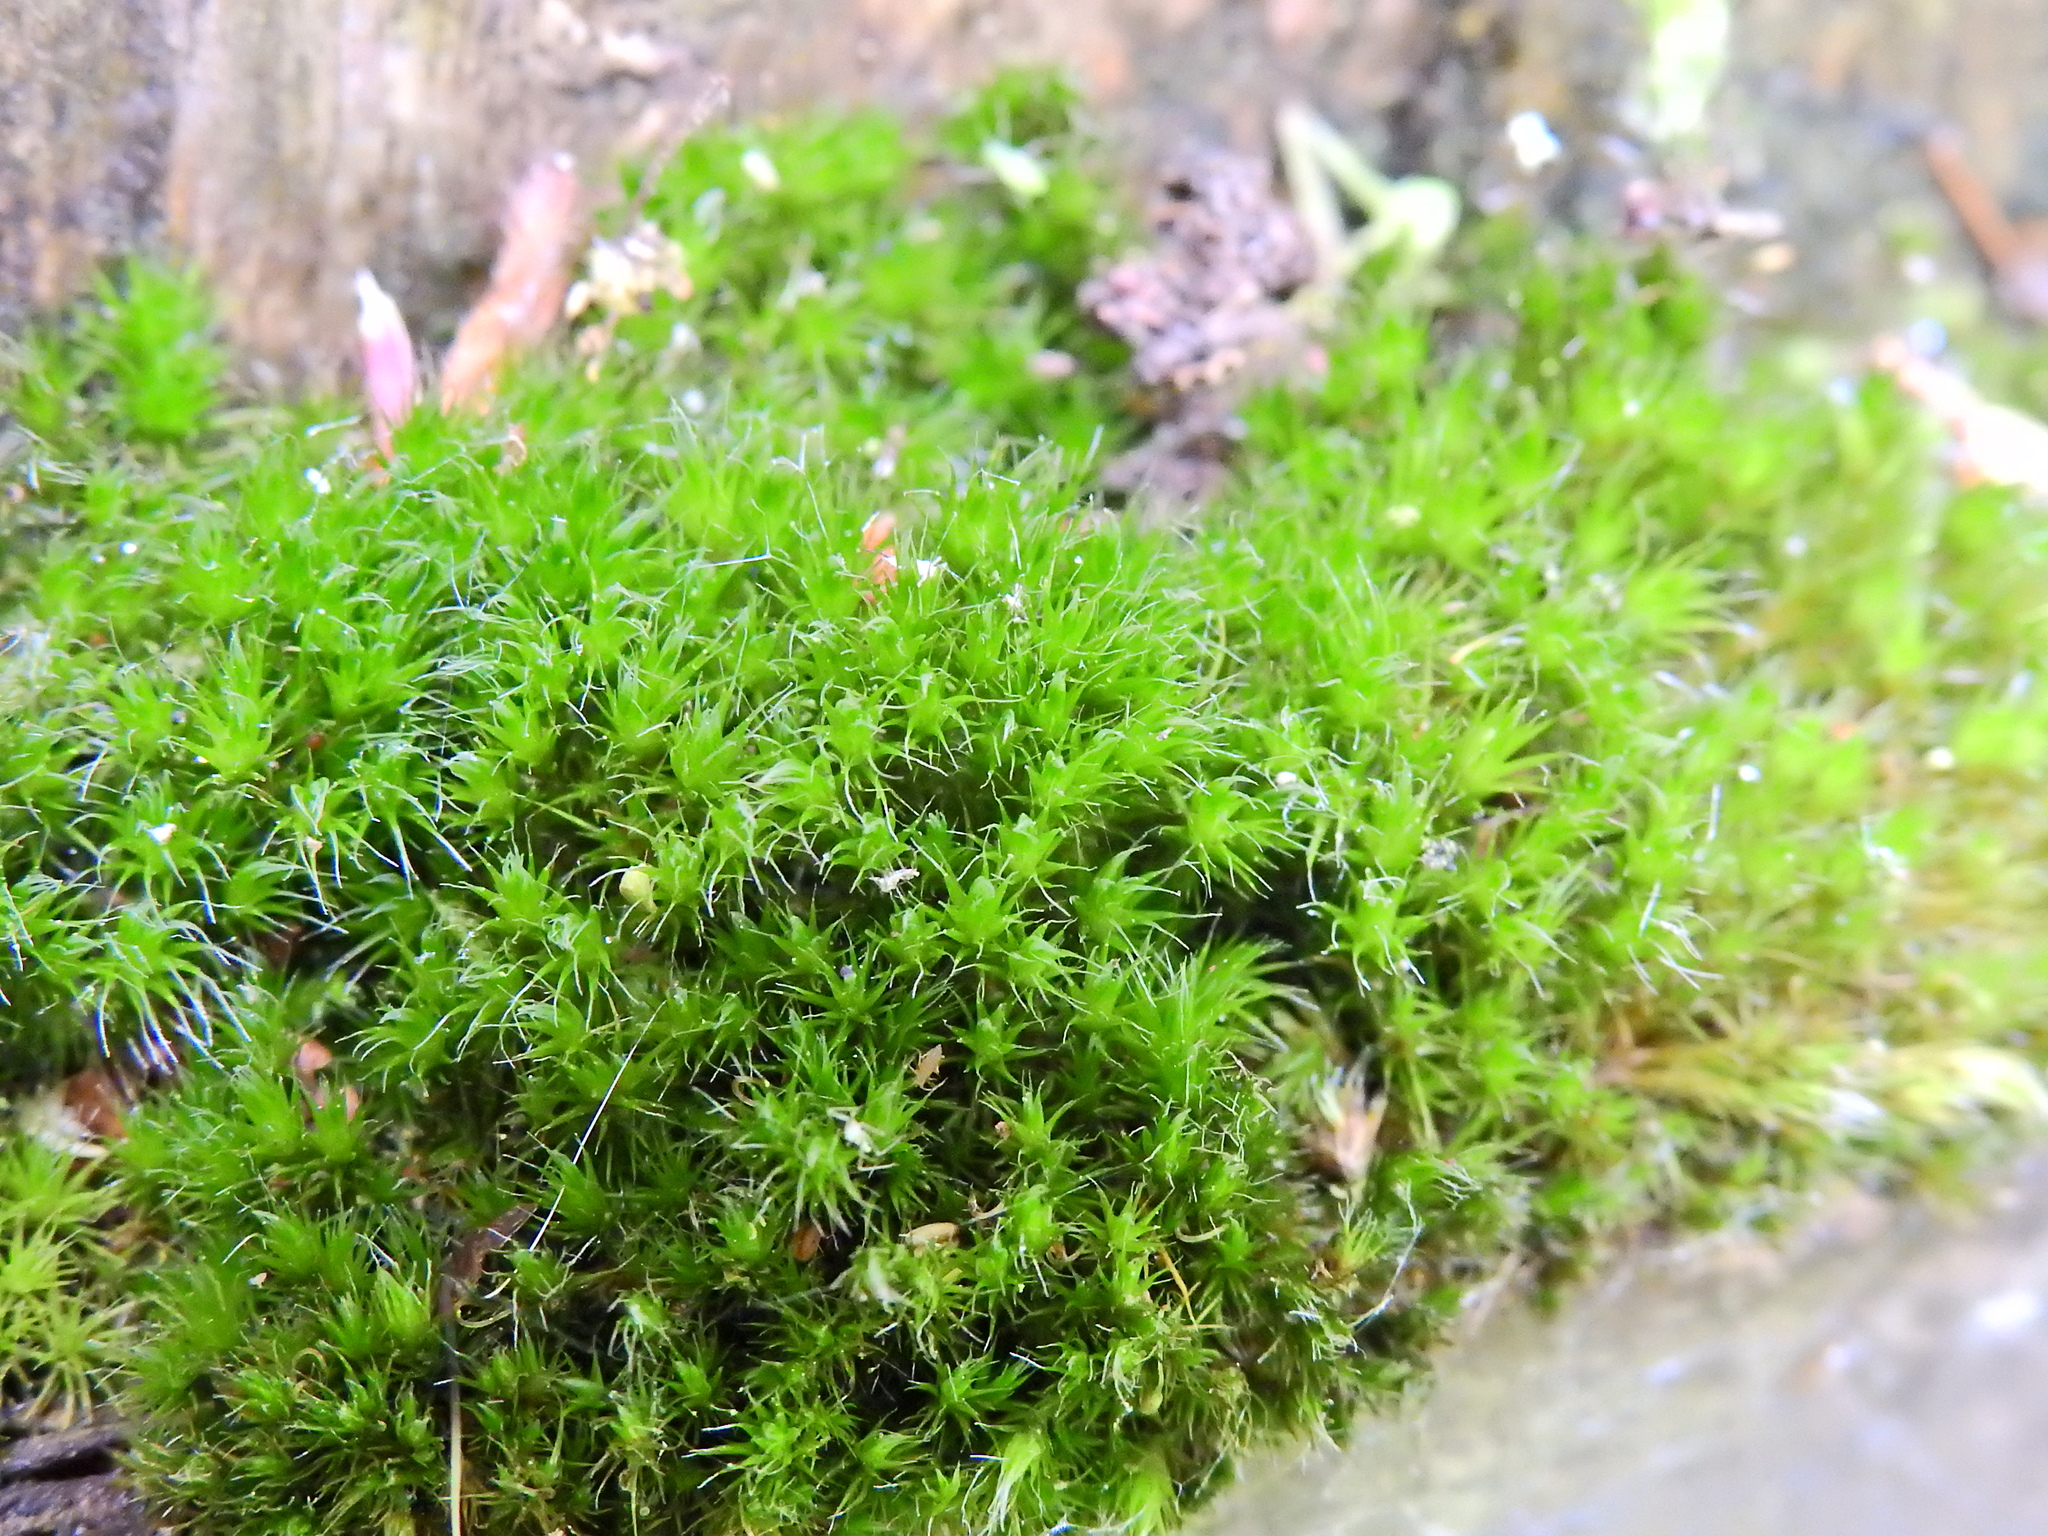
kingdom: Plantae
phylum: Bryophyta
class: Bryopsida
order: Dicranales
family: Leucobryaceae
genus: Campylopus
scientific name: Campylopus introflexus
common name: Heath star moss
